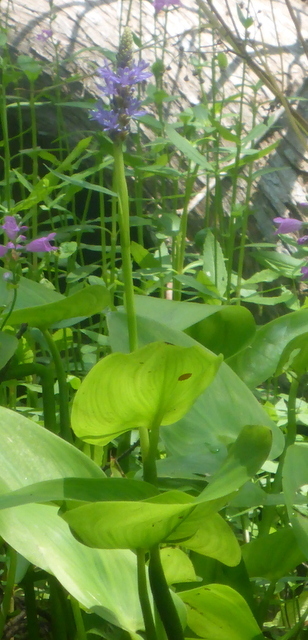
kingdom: Plantae
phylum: Tracheophyta
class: Liliopsida
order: Commelinales
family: Pontederiaceae
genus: Pontederia
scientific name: Pontederia cordata
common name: Pickerelweed
